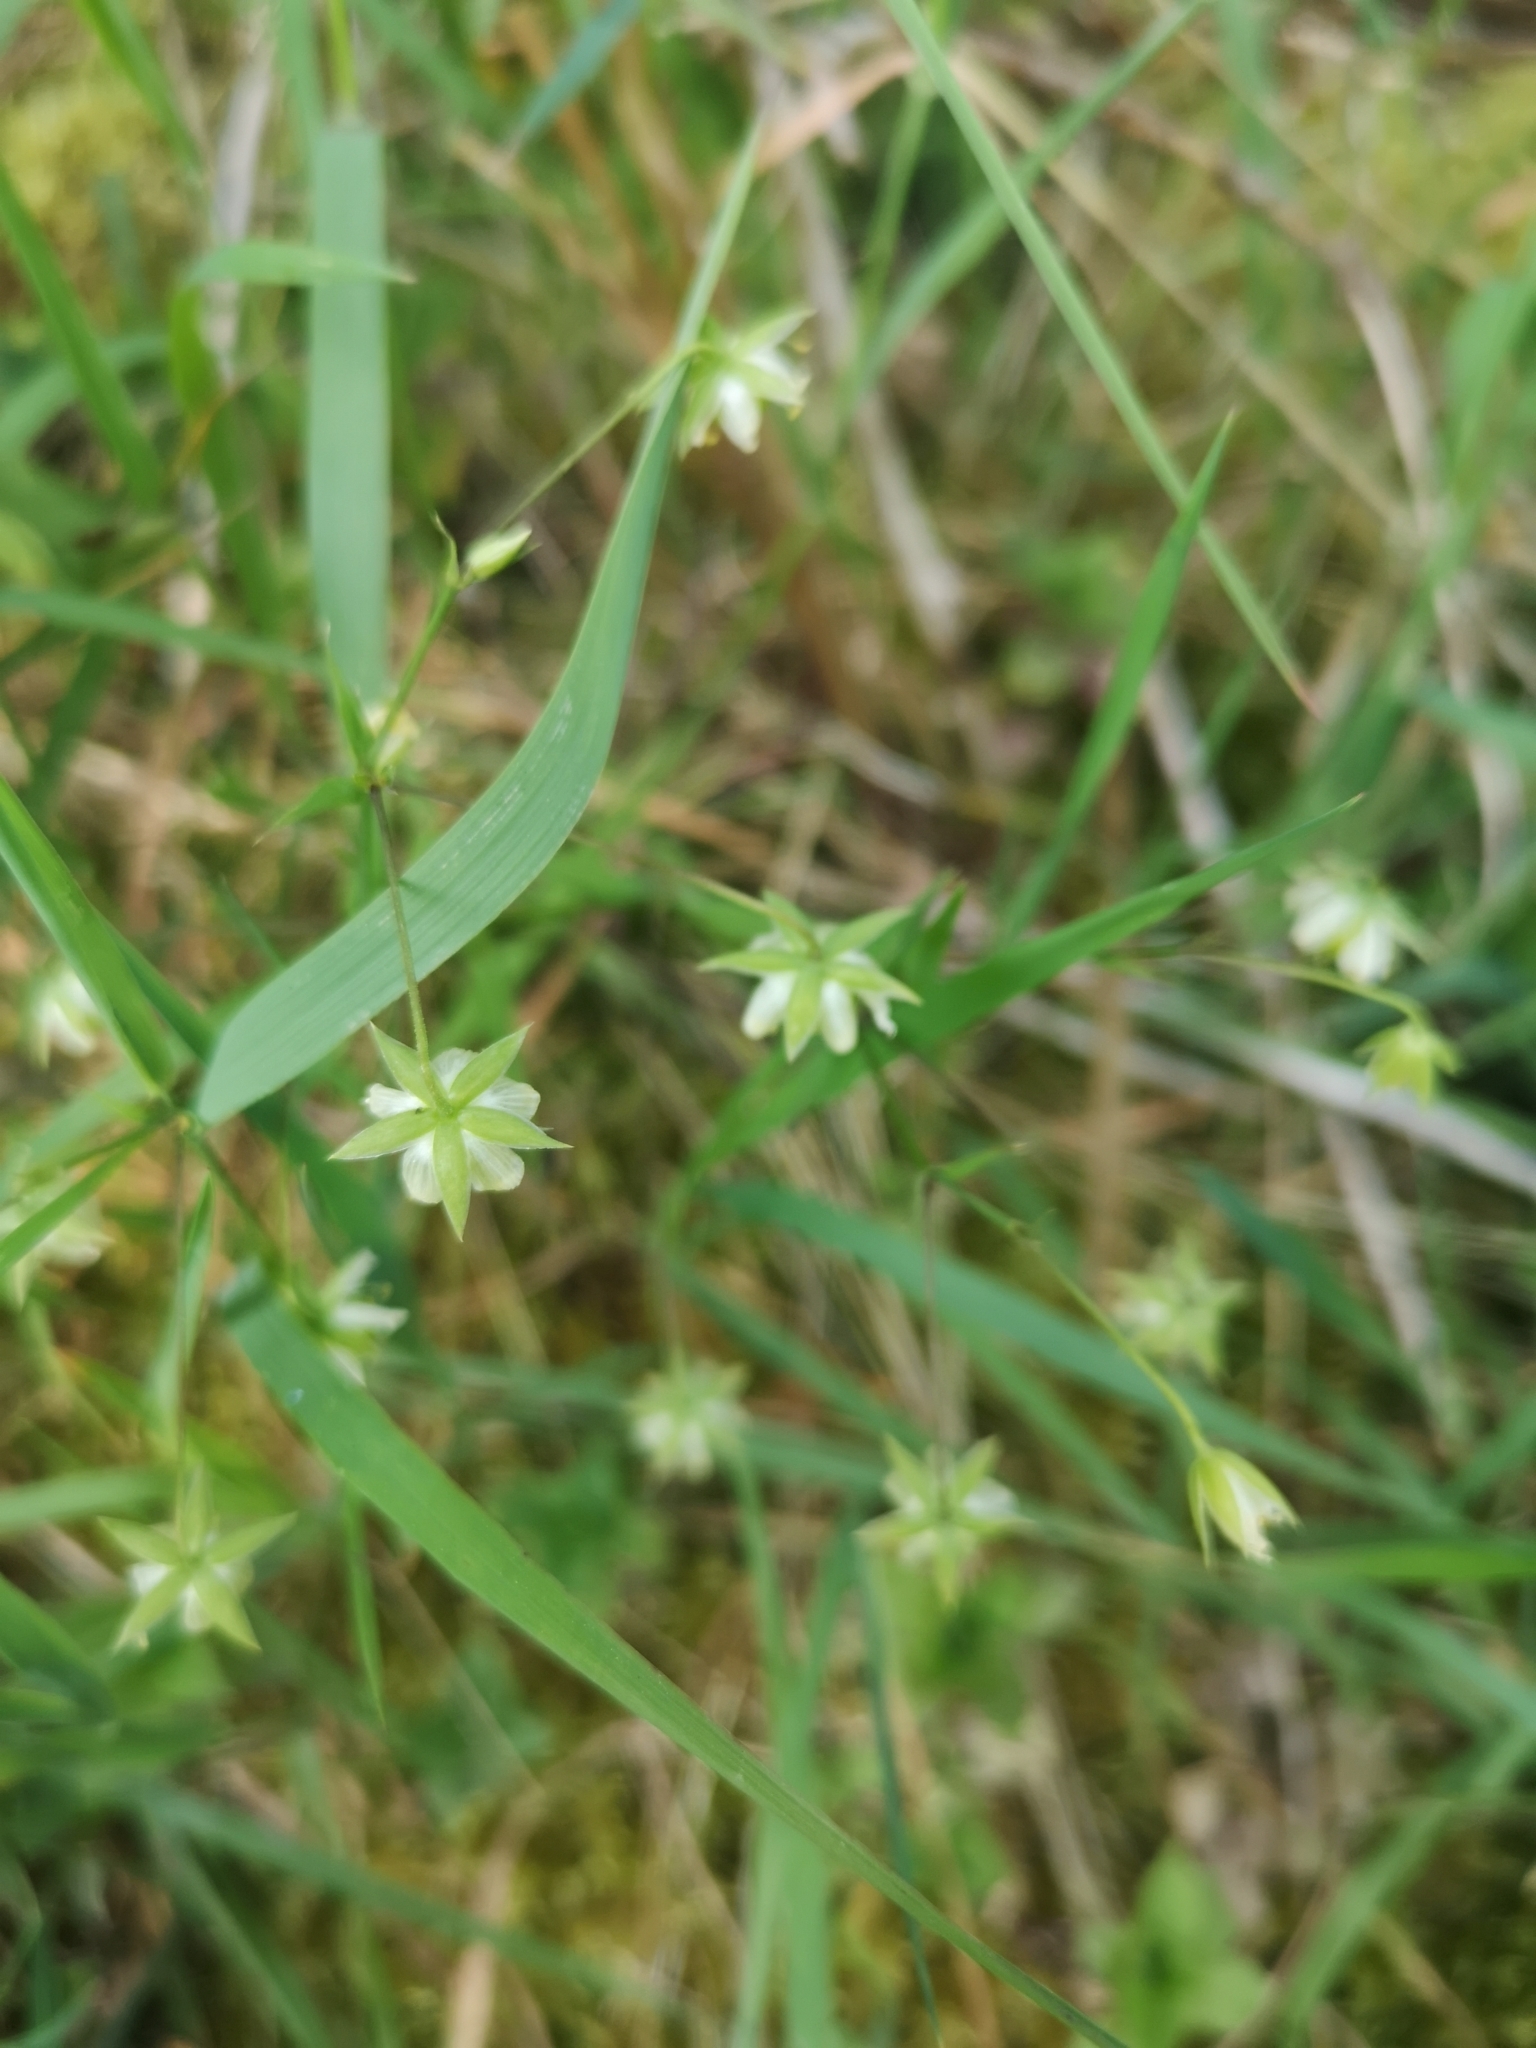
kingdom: Plantae
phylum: Tracheophyta
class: Magnoliopsida
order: Caryophyllales
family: Caryophyllaceae
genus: Rabelera
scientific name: Rabelera holostea
